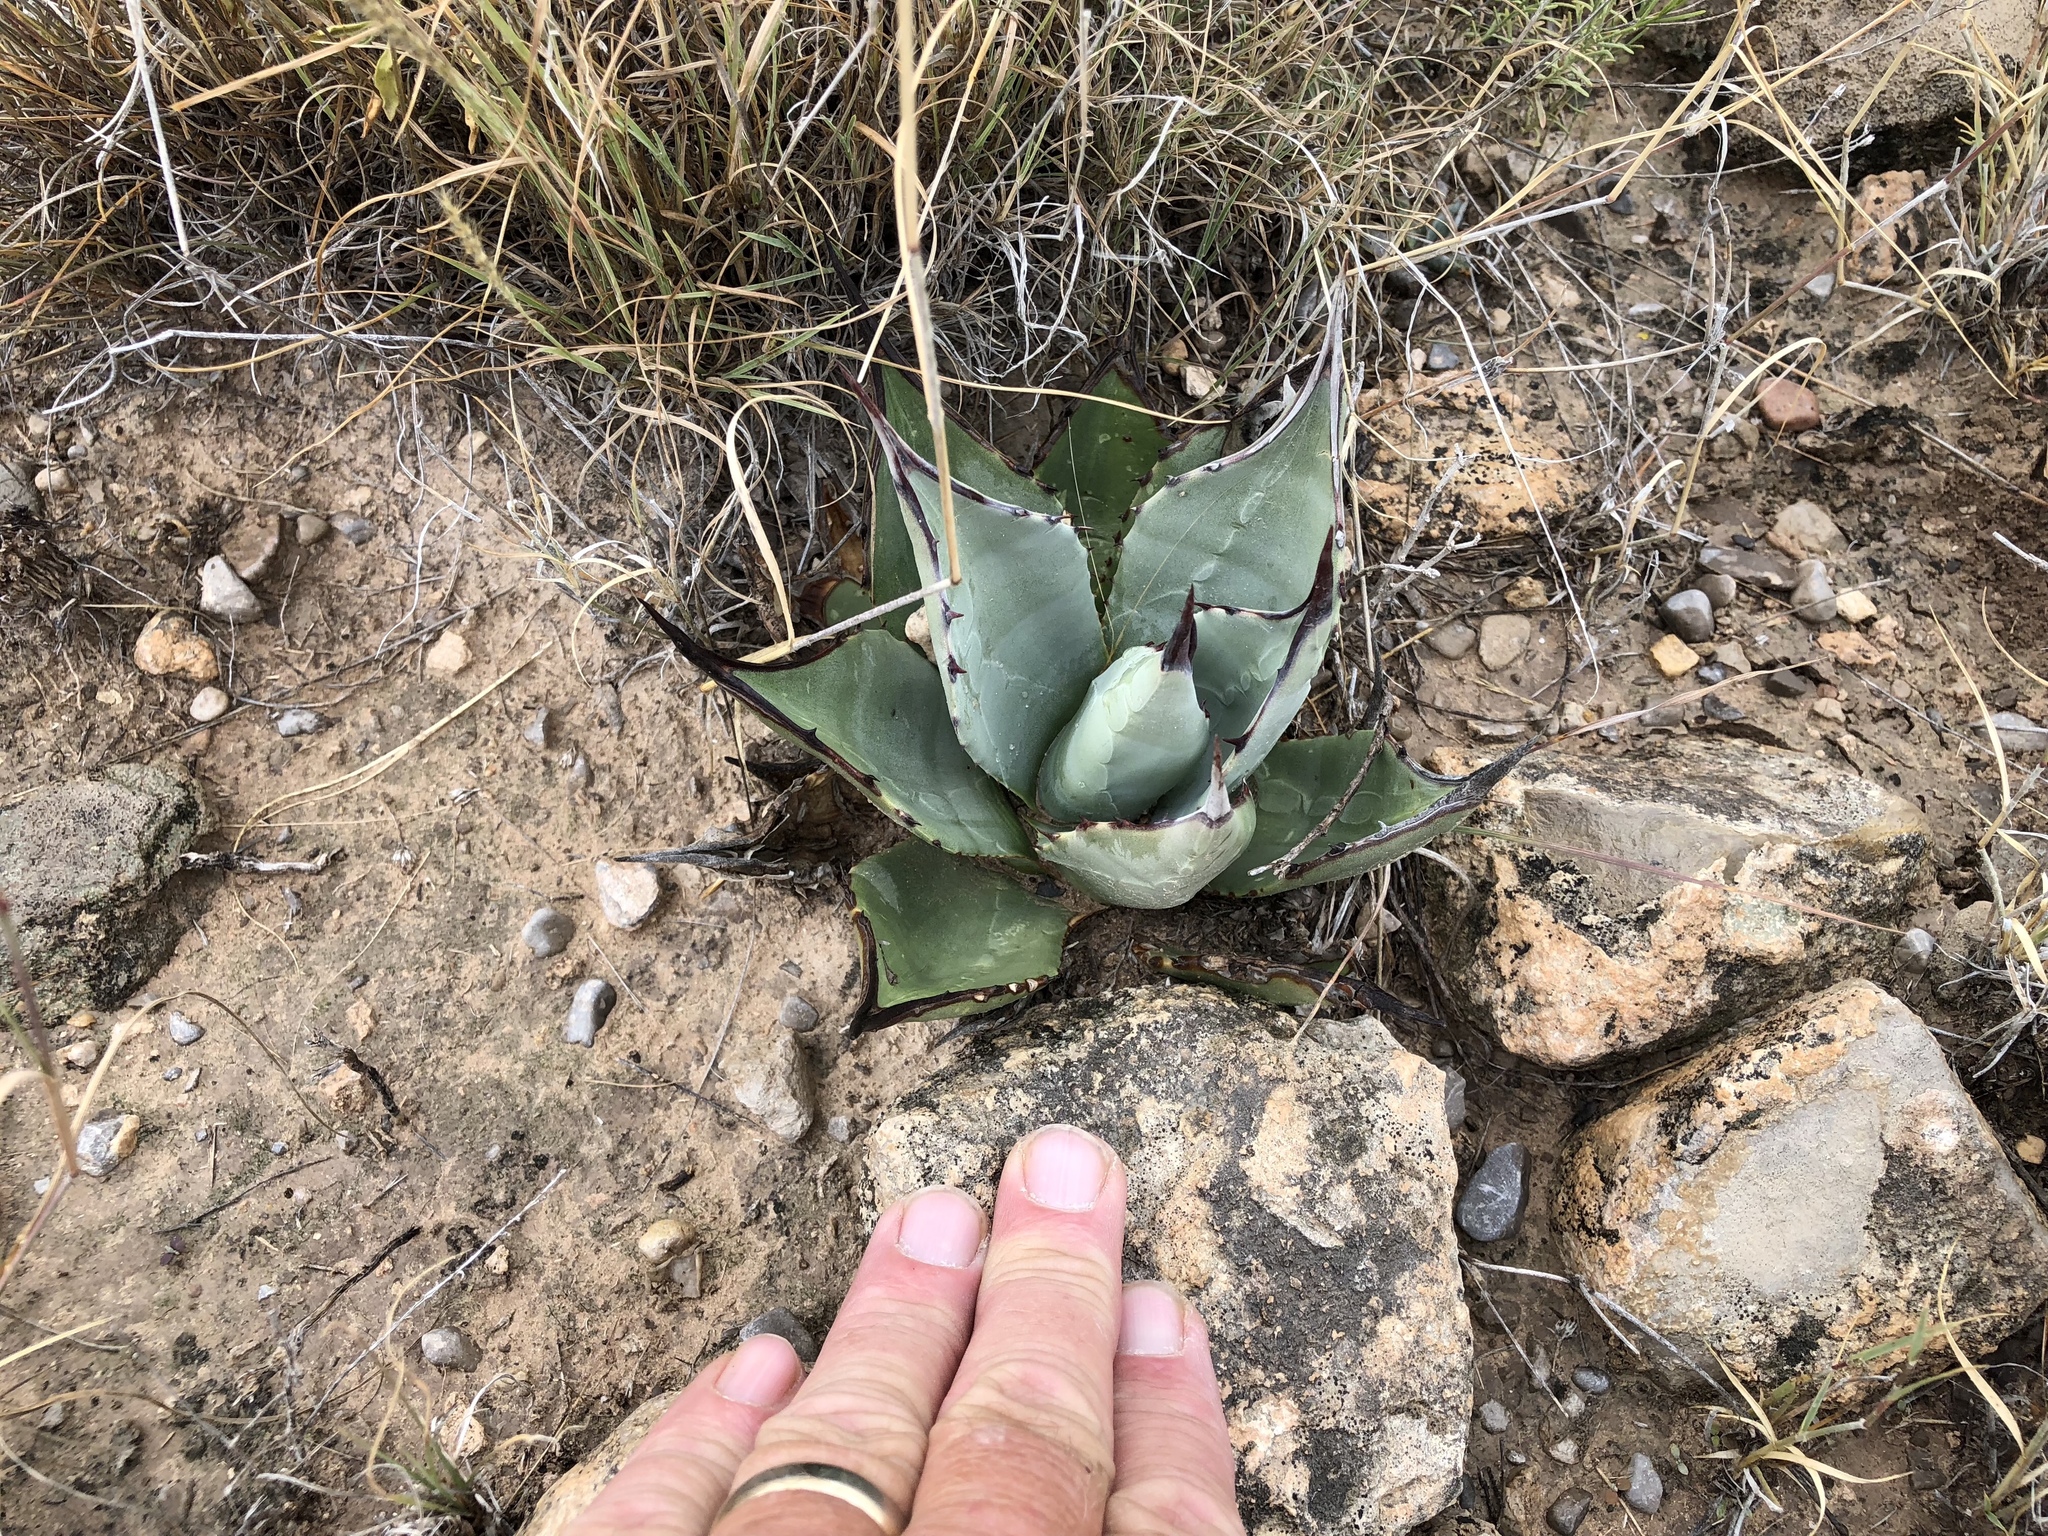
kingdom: Plantae
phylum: Tracheophyta
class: Liliopsida
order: Asparagales
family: Asparagaceae
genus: Agave
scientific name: Agave parryi
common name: Parry's agave
